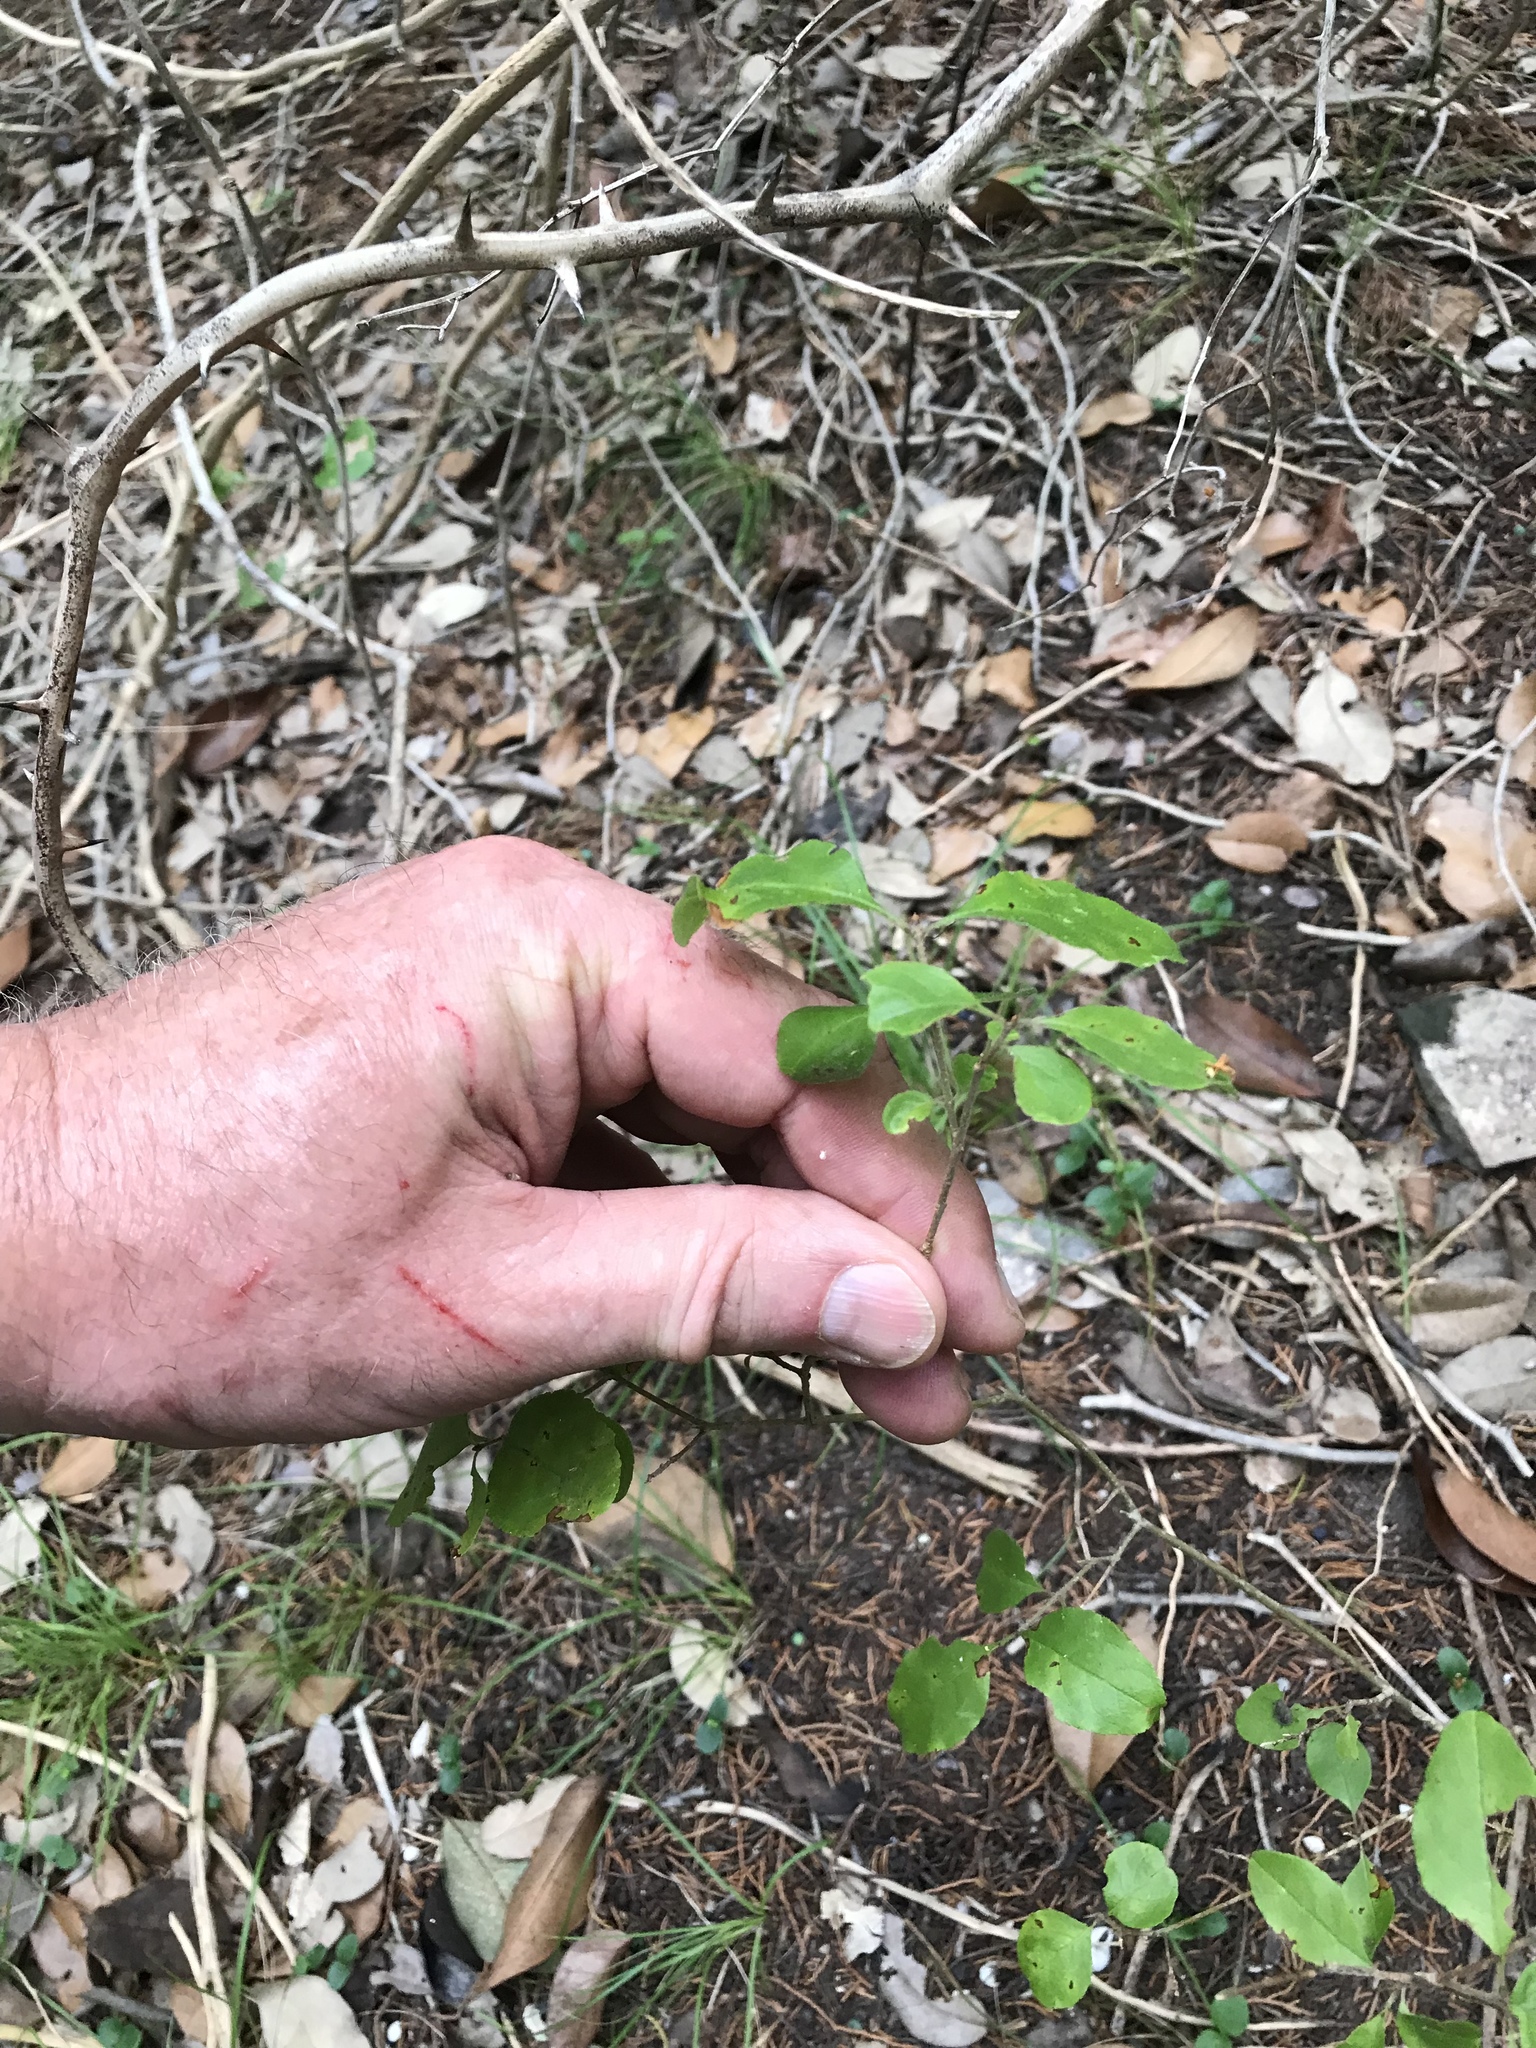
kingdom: Plantae
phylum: Tracheophyta
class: Magnoliopsida
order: Lamiales
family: Oleaceae
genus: Forestiera
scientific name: Forestiera pubescens
